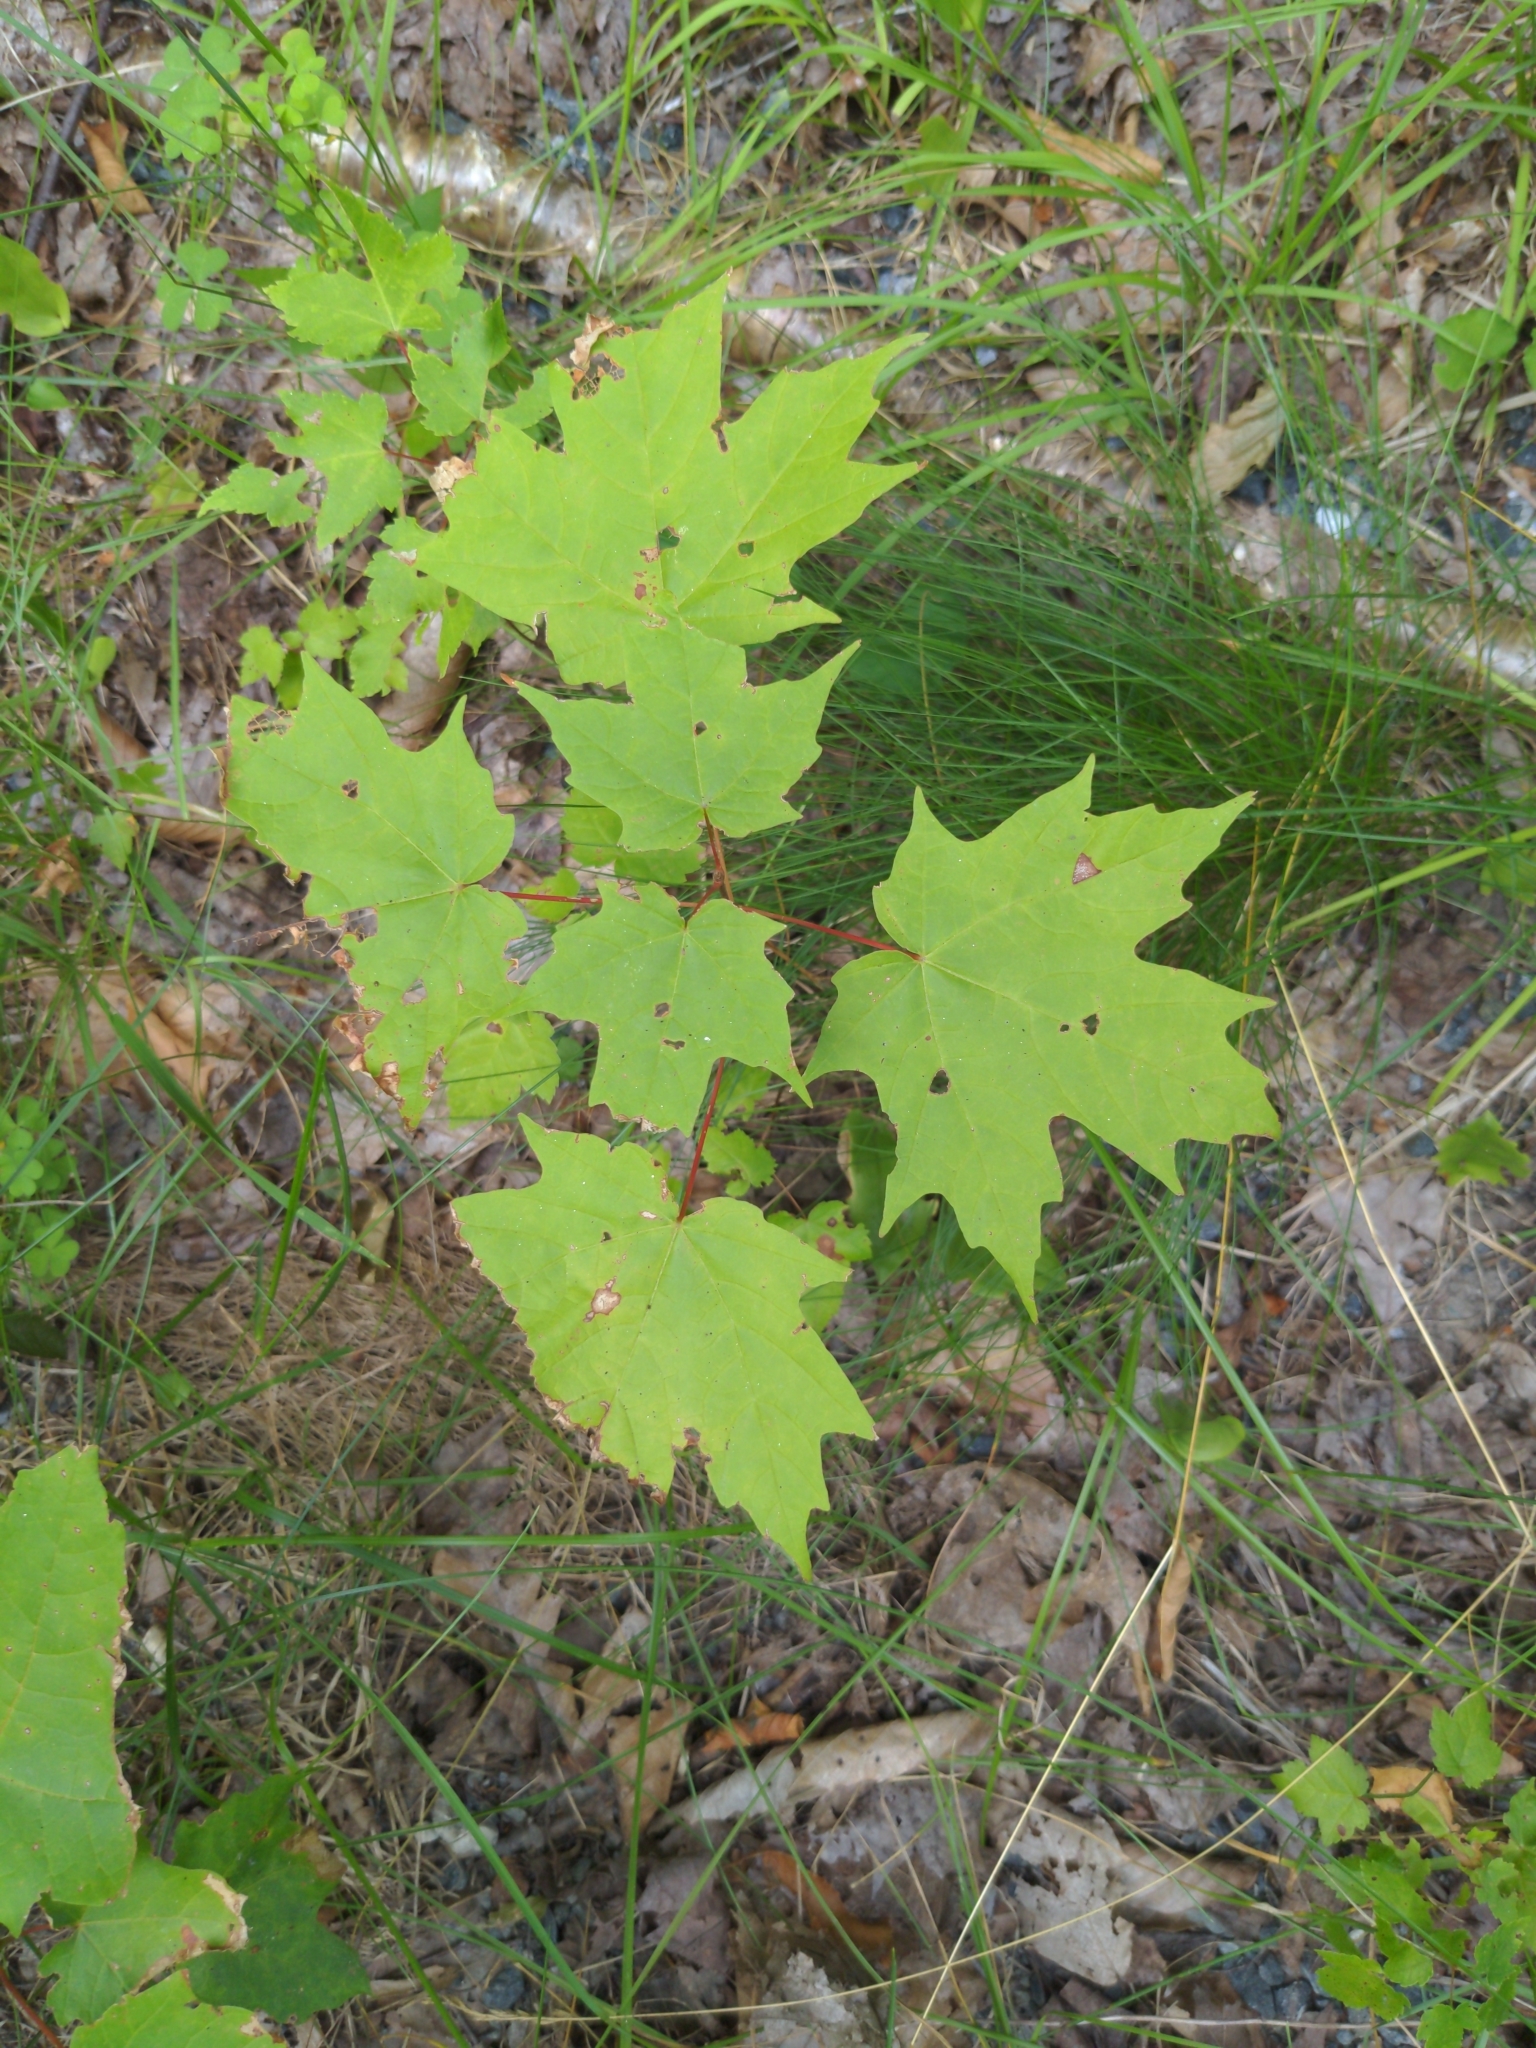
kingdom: Plantae
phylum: Tracheophyta
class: Magnoliopsida
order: Sapindales
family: Sapindaceae
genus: Acer
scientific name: Acer saccharum
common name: Sugar maple
